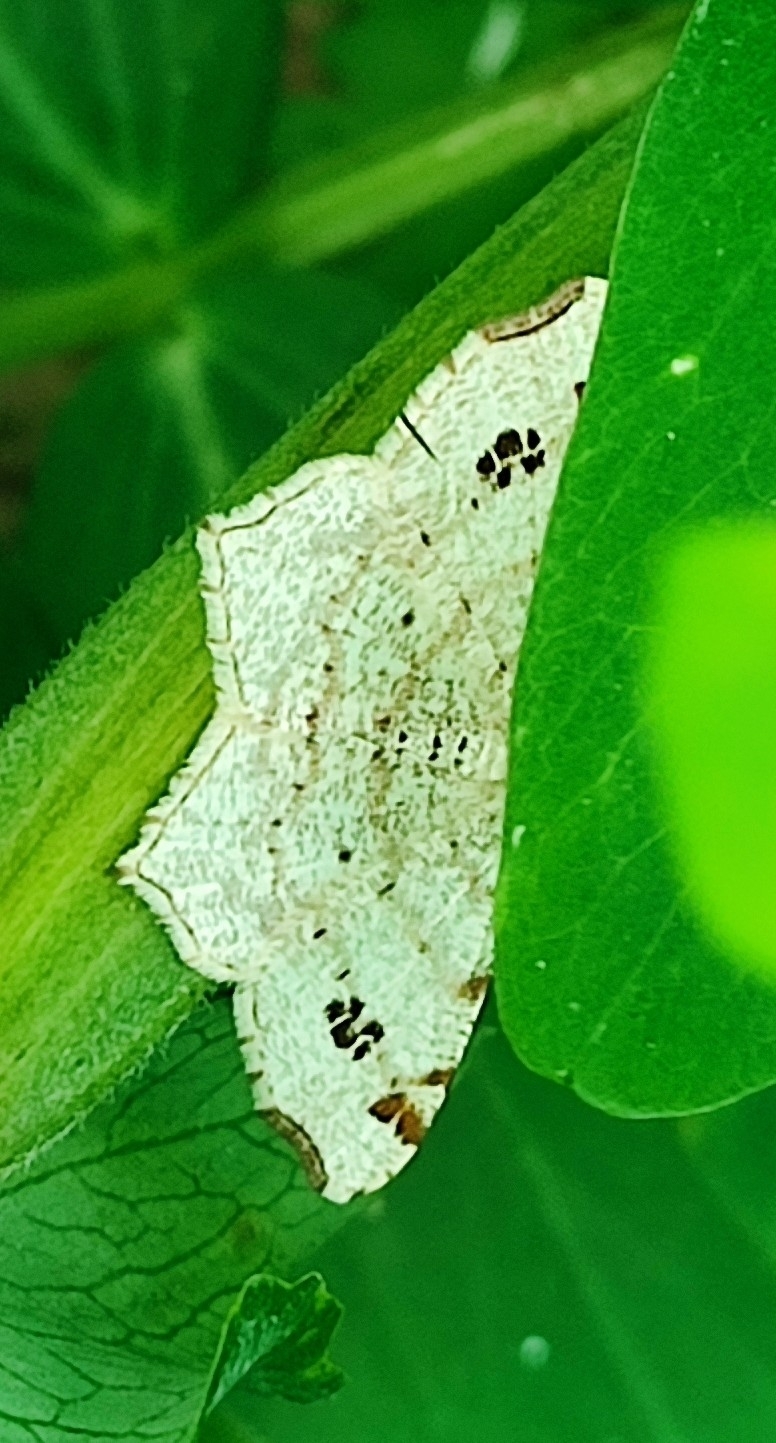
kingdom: Animalia
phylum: Arthropoda
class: Insecta
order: Lepidoptera
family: Geometridae
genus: Macaria
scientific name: Macaria notata
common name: Peacock moth
